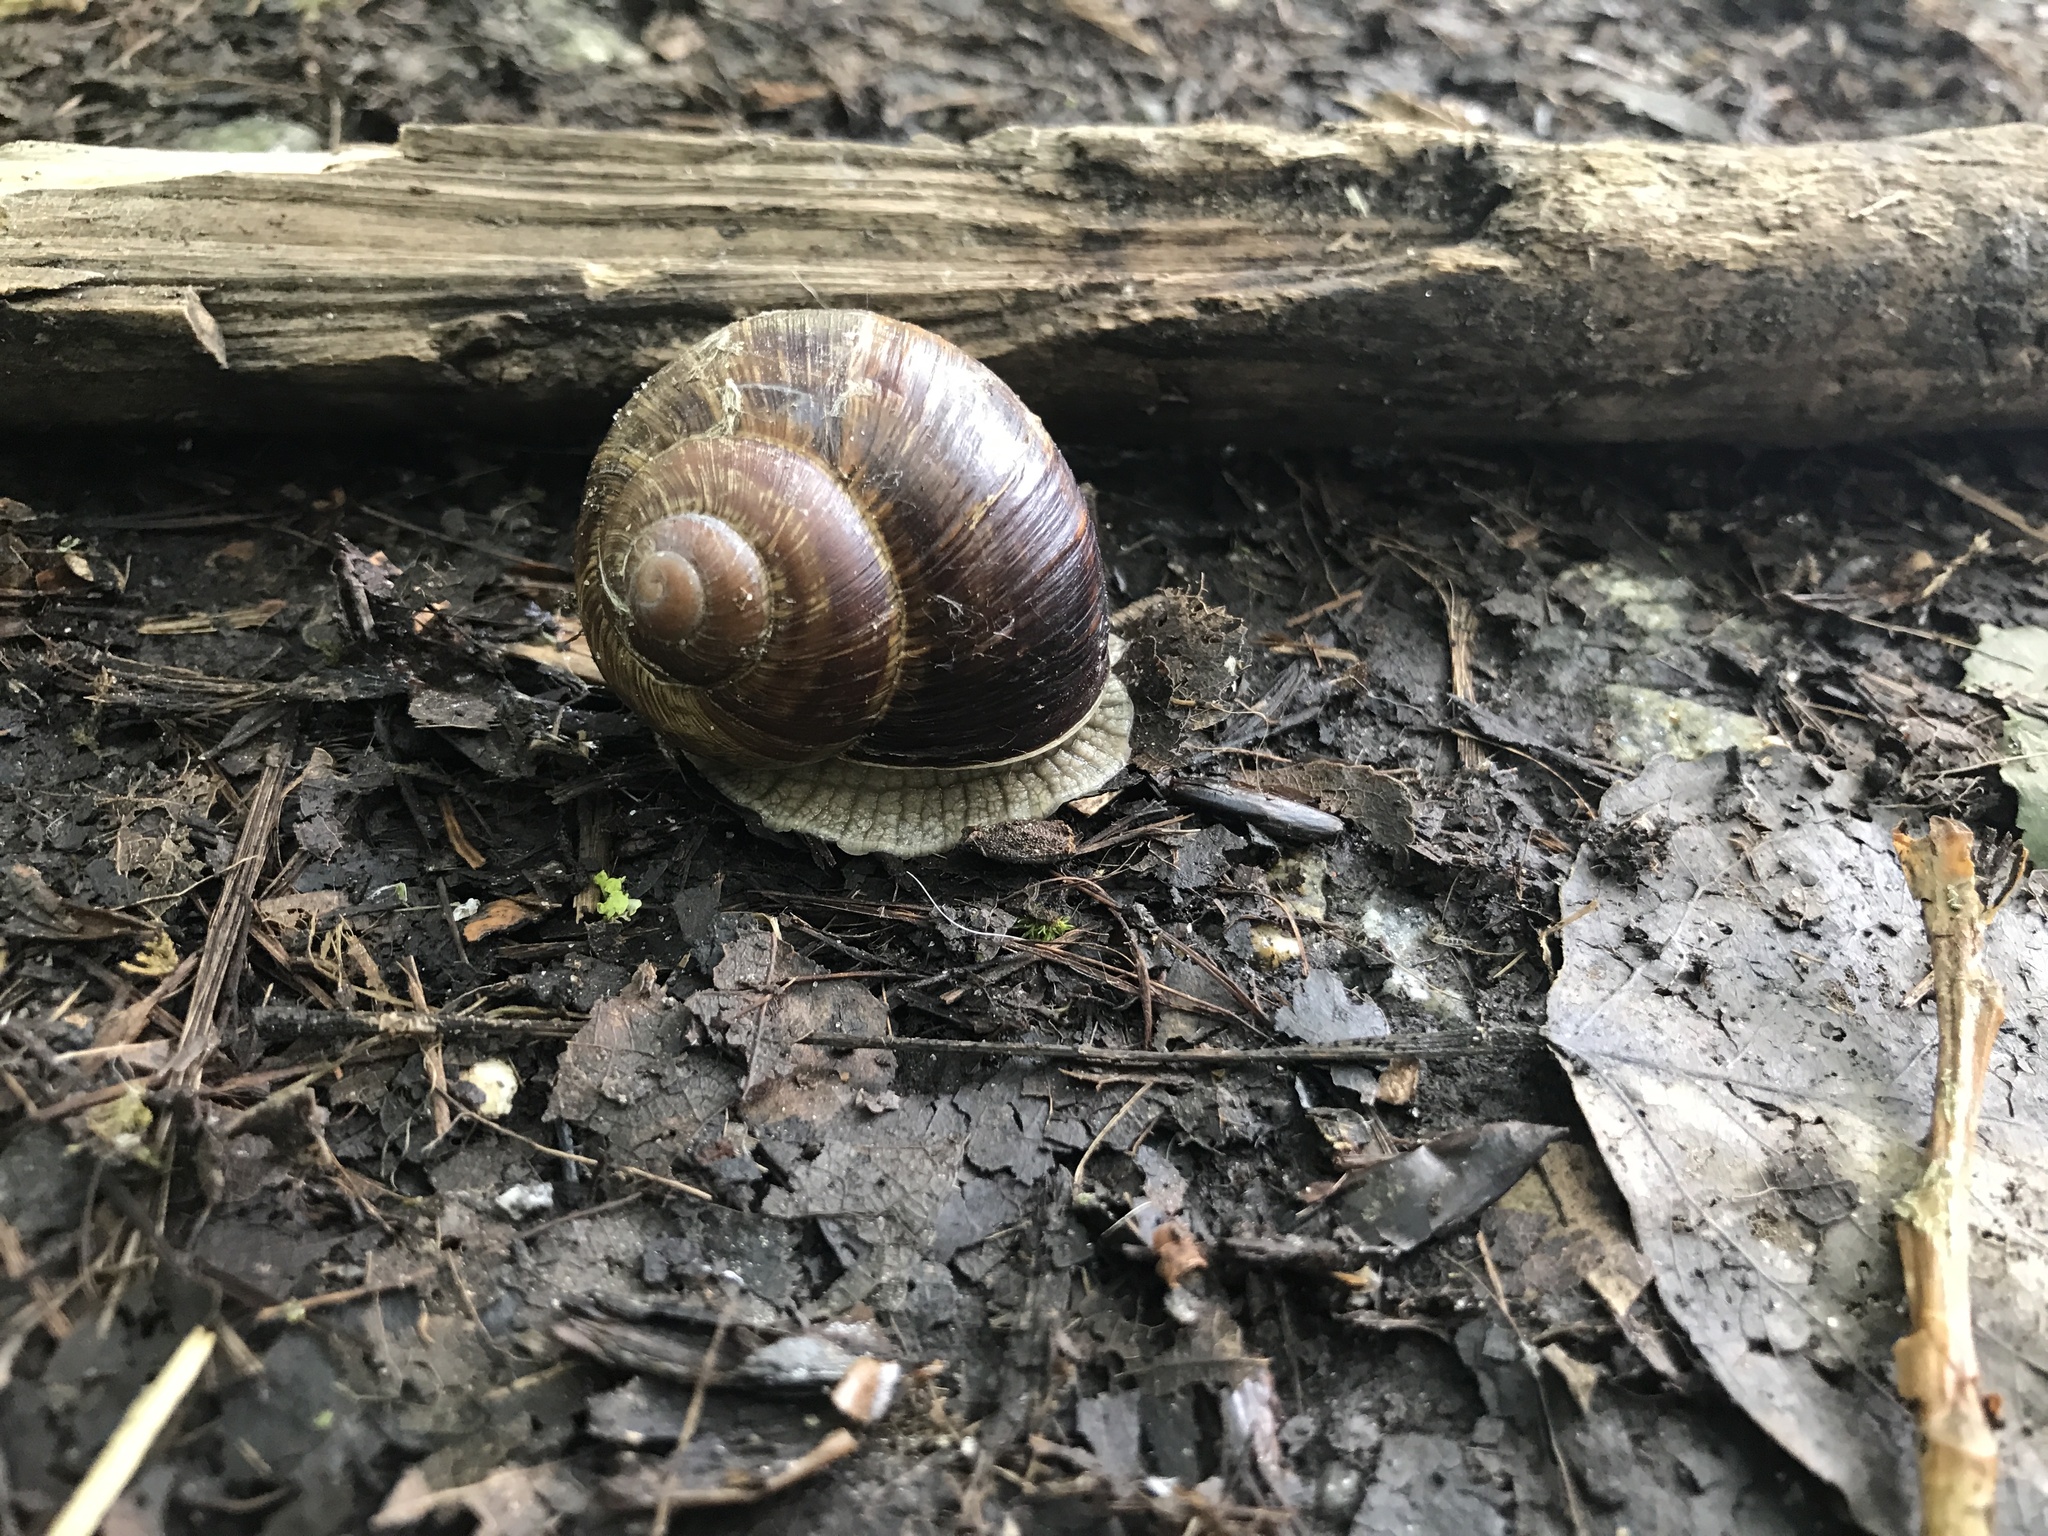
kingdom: Animalia
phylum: Mollusca
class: Gastropoda
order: Stylommatophora
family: Helicidae
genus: Helix
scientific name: Helix pomatia
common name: Roman snail
